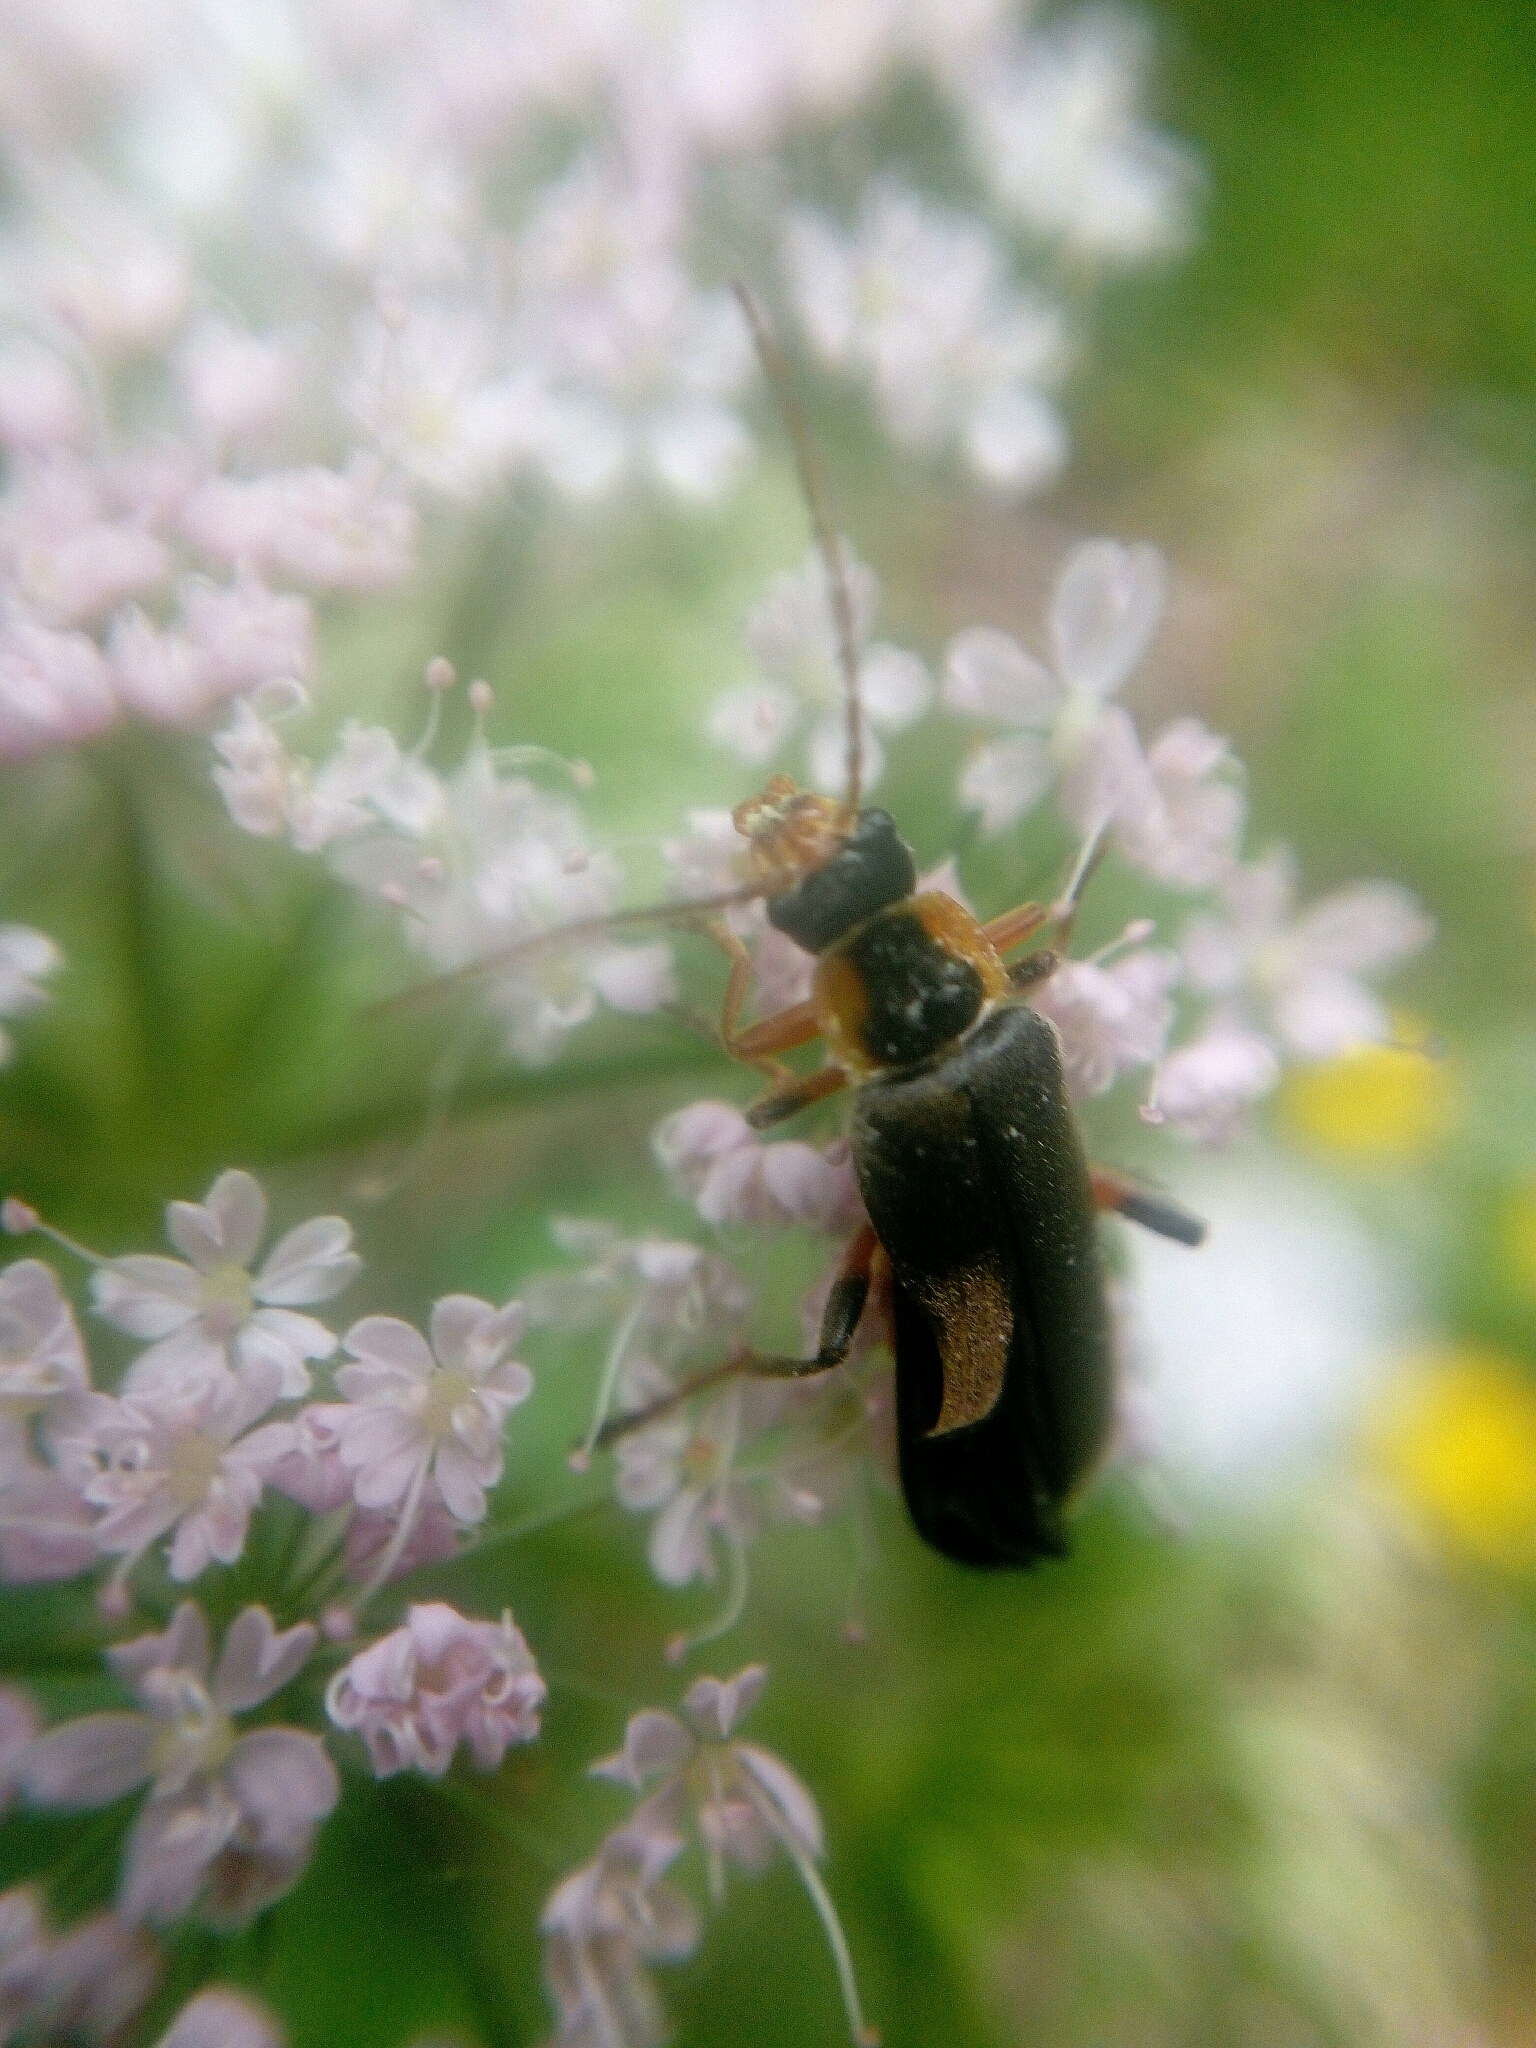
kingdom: Animalia
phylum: Arthropoda
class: Insecta
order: Coleoptera
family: Cantharidae
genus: Cantharis
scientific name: Cantharis nigricans
